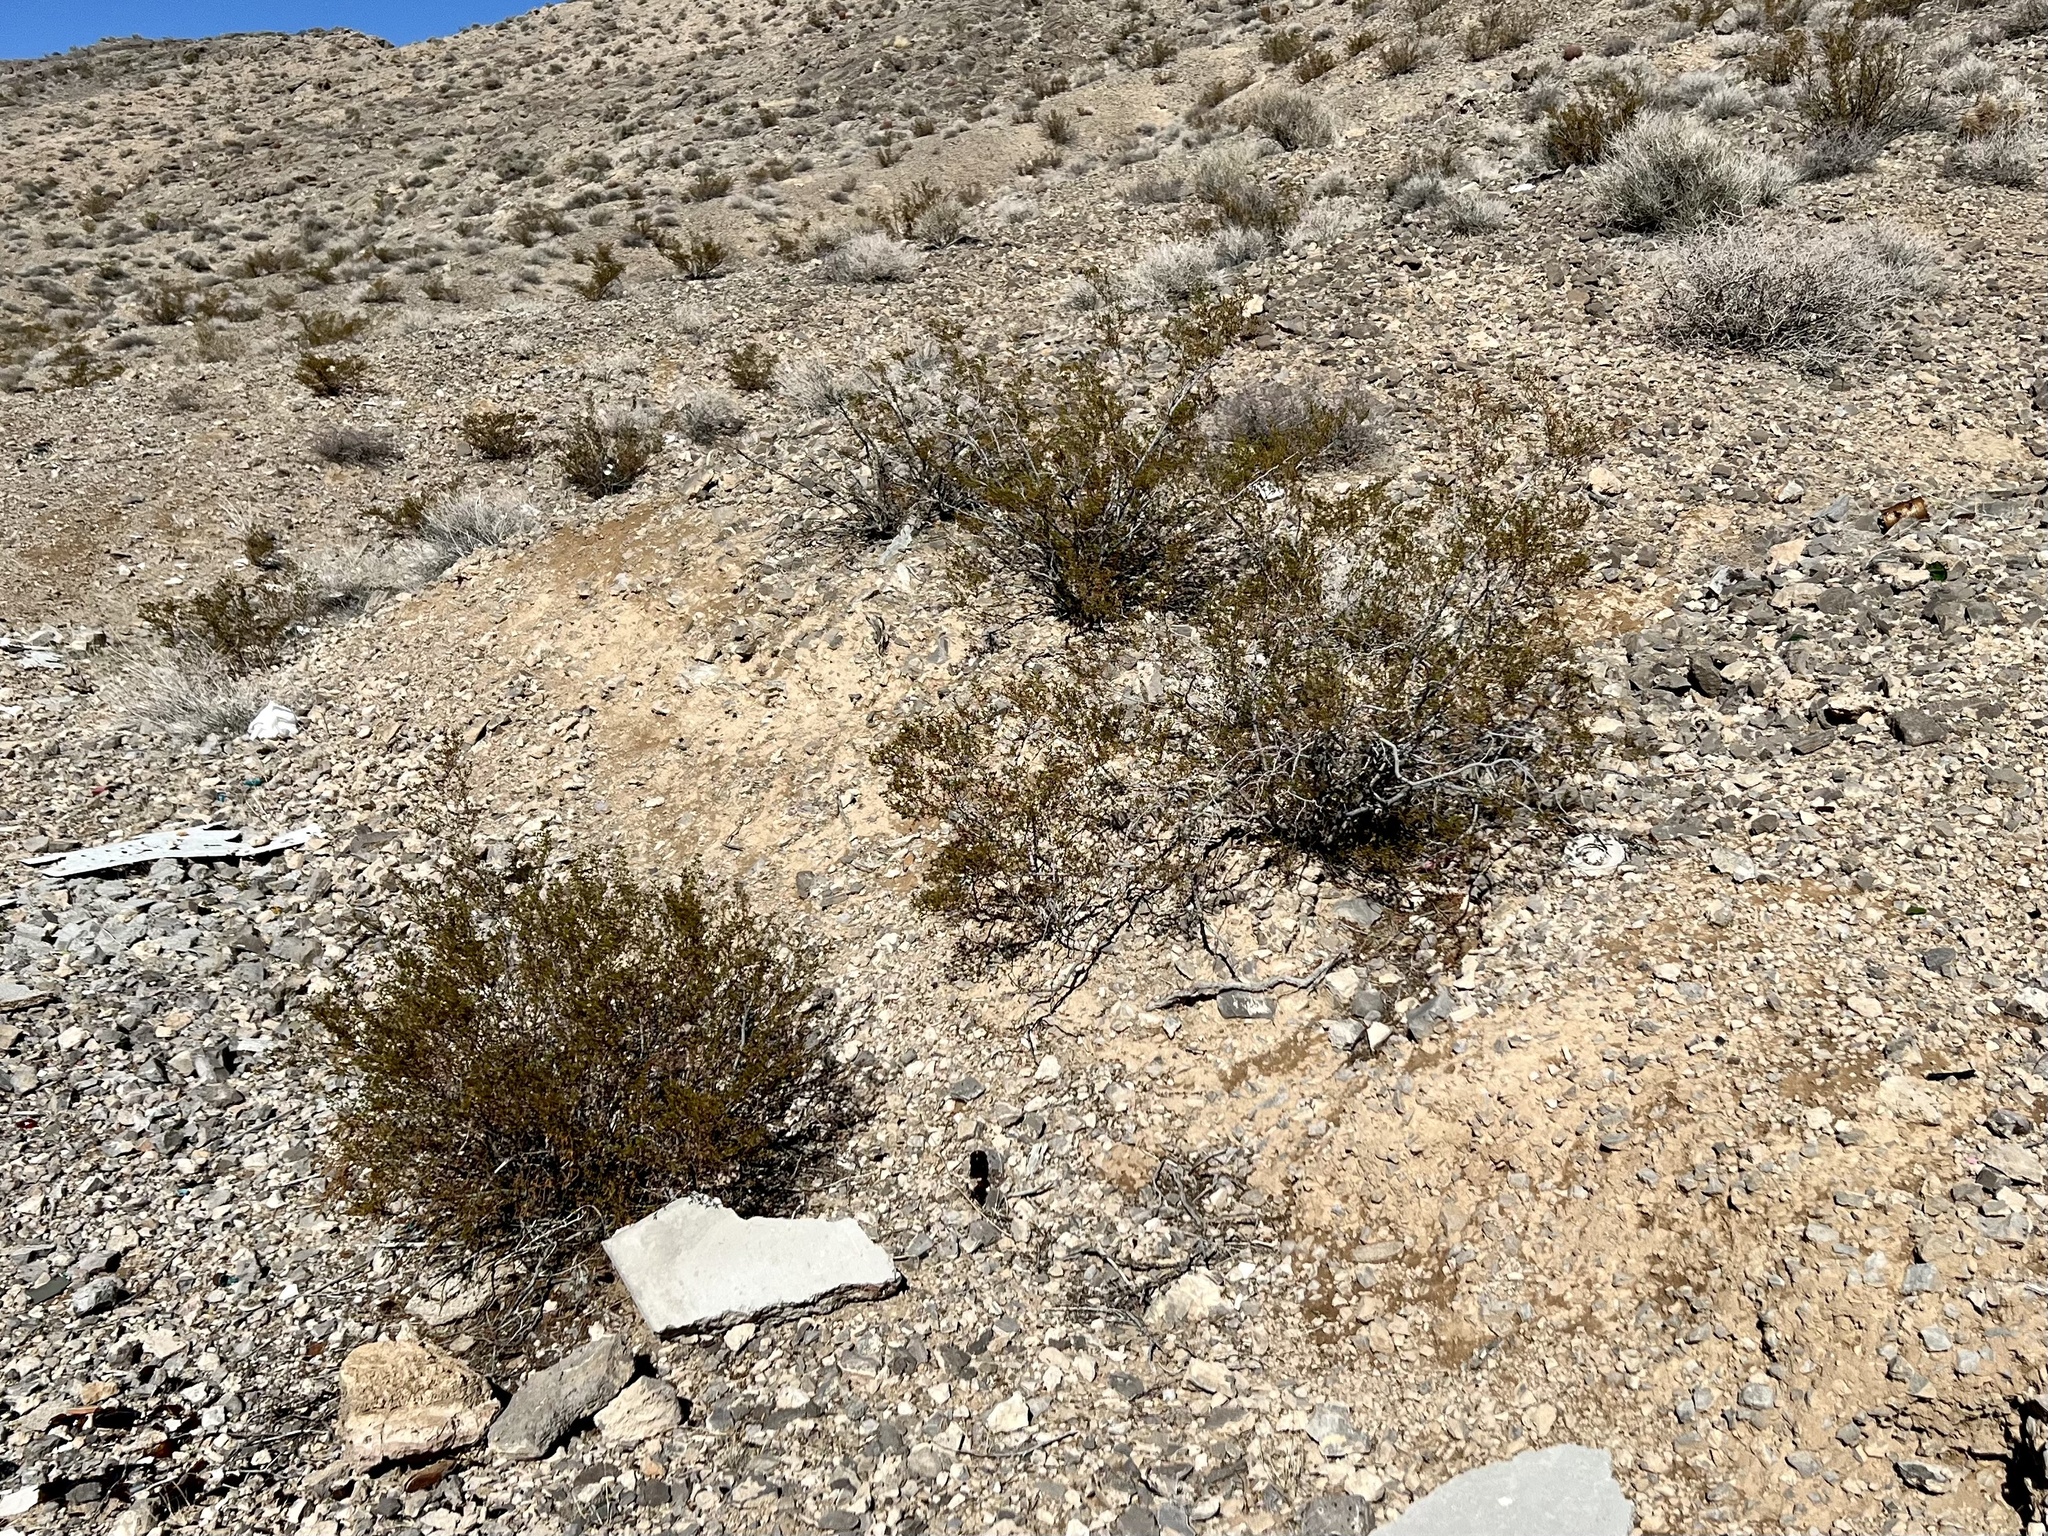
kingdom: Plantae
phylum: Tracheophyta
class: Magnoliopsida
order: Zygophyllales
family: Zygophyllaceae
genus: Larrea
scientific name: Larrea tridentata
